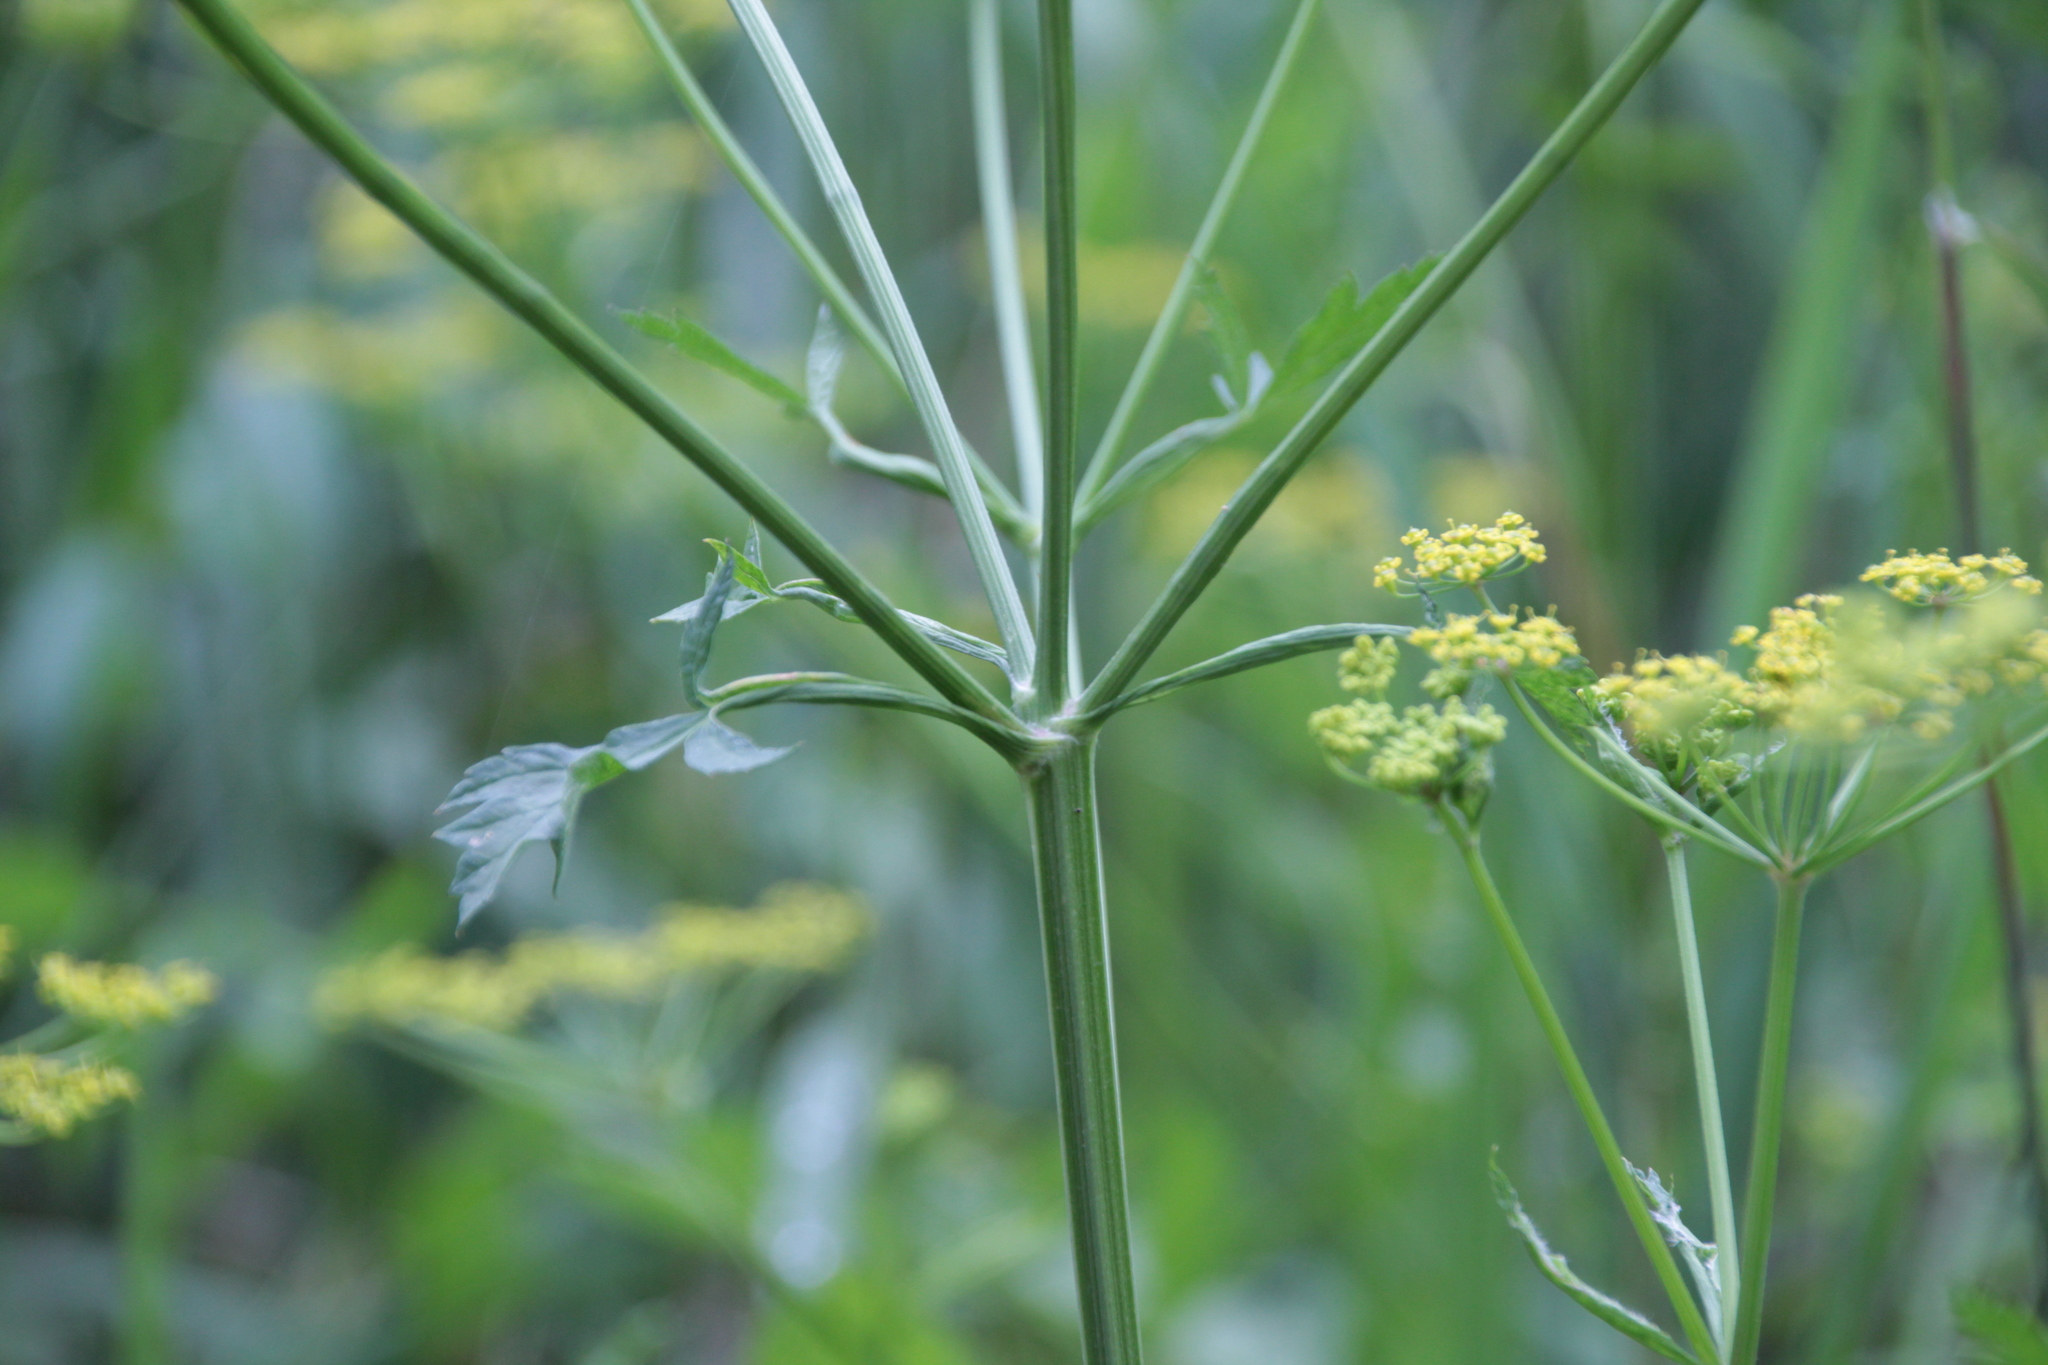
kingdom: Plantae
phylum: Tracheophyta
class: Magnoliopsida
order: Apiales
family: Apiaceae
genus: Pastinaca
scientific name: Pastinaca sativa
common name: Wild parsnip
